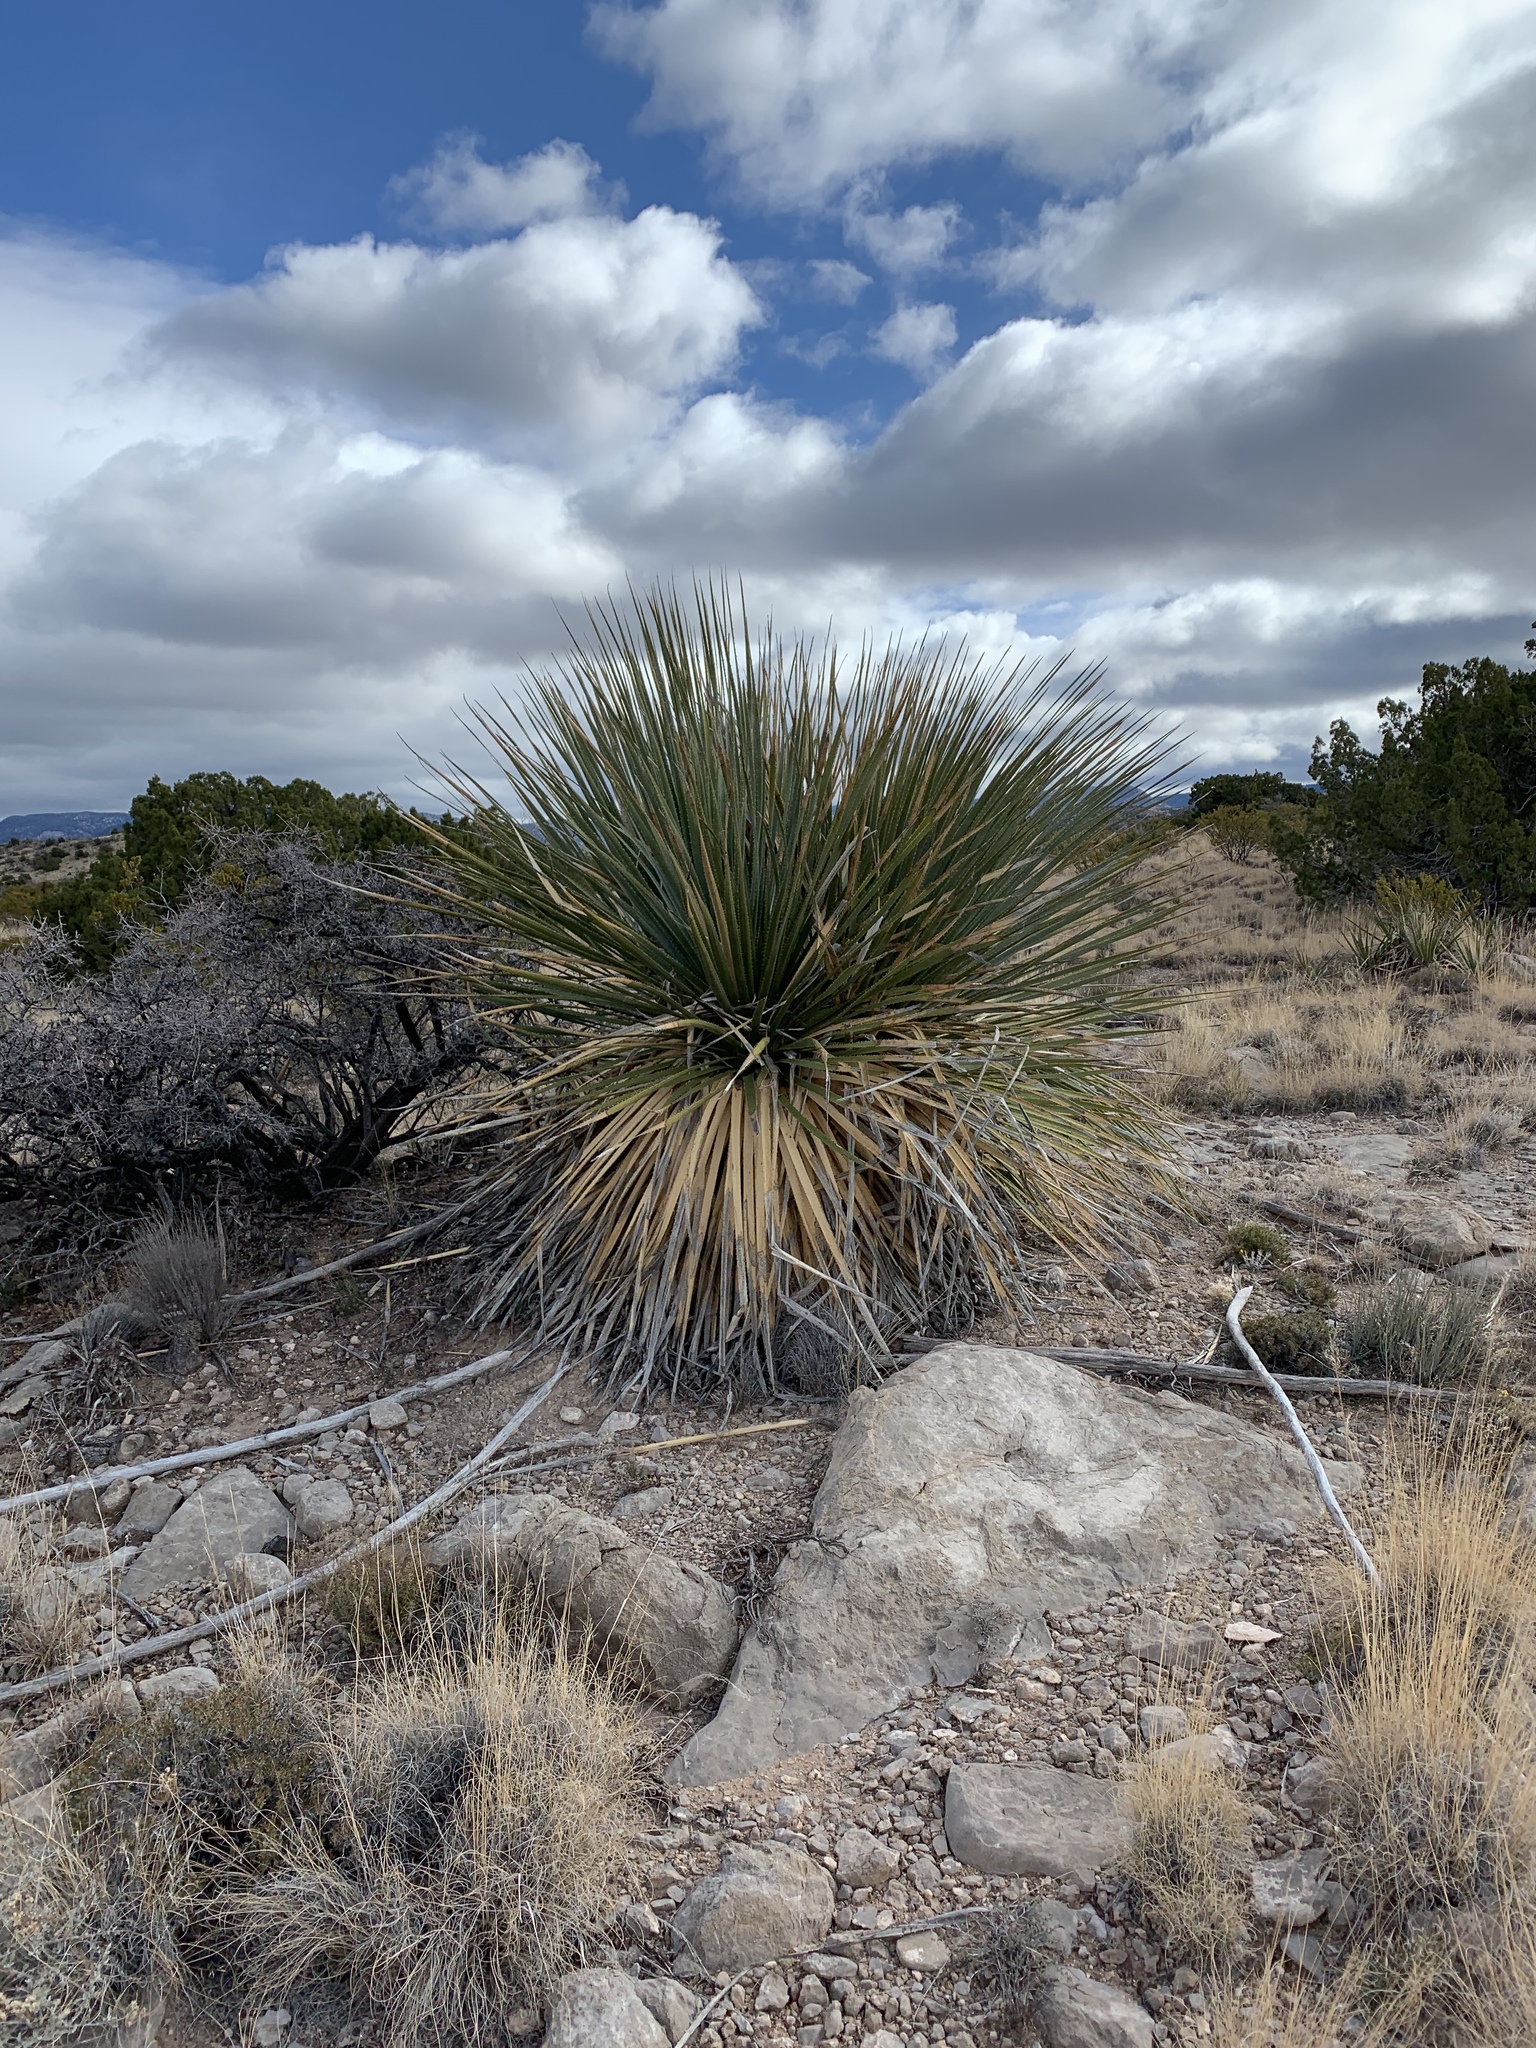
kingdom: Plantae
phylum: Tracheophyta
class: Liliopsida
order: Asparagales
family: Asparagaceae
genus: Dasylirion
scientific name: Dasylirion wheeleri
